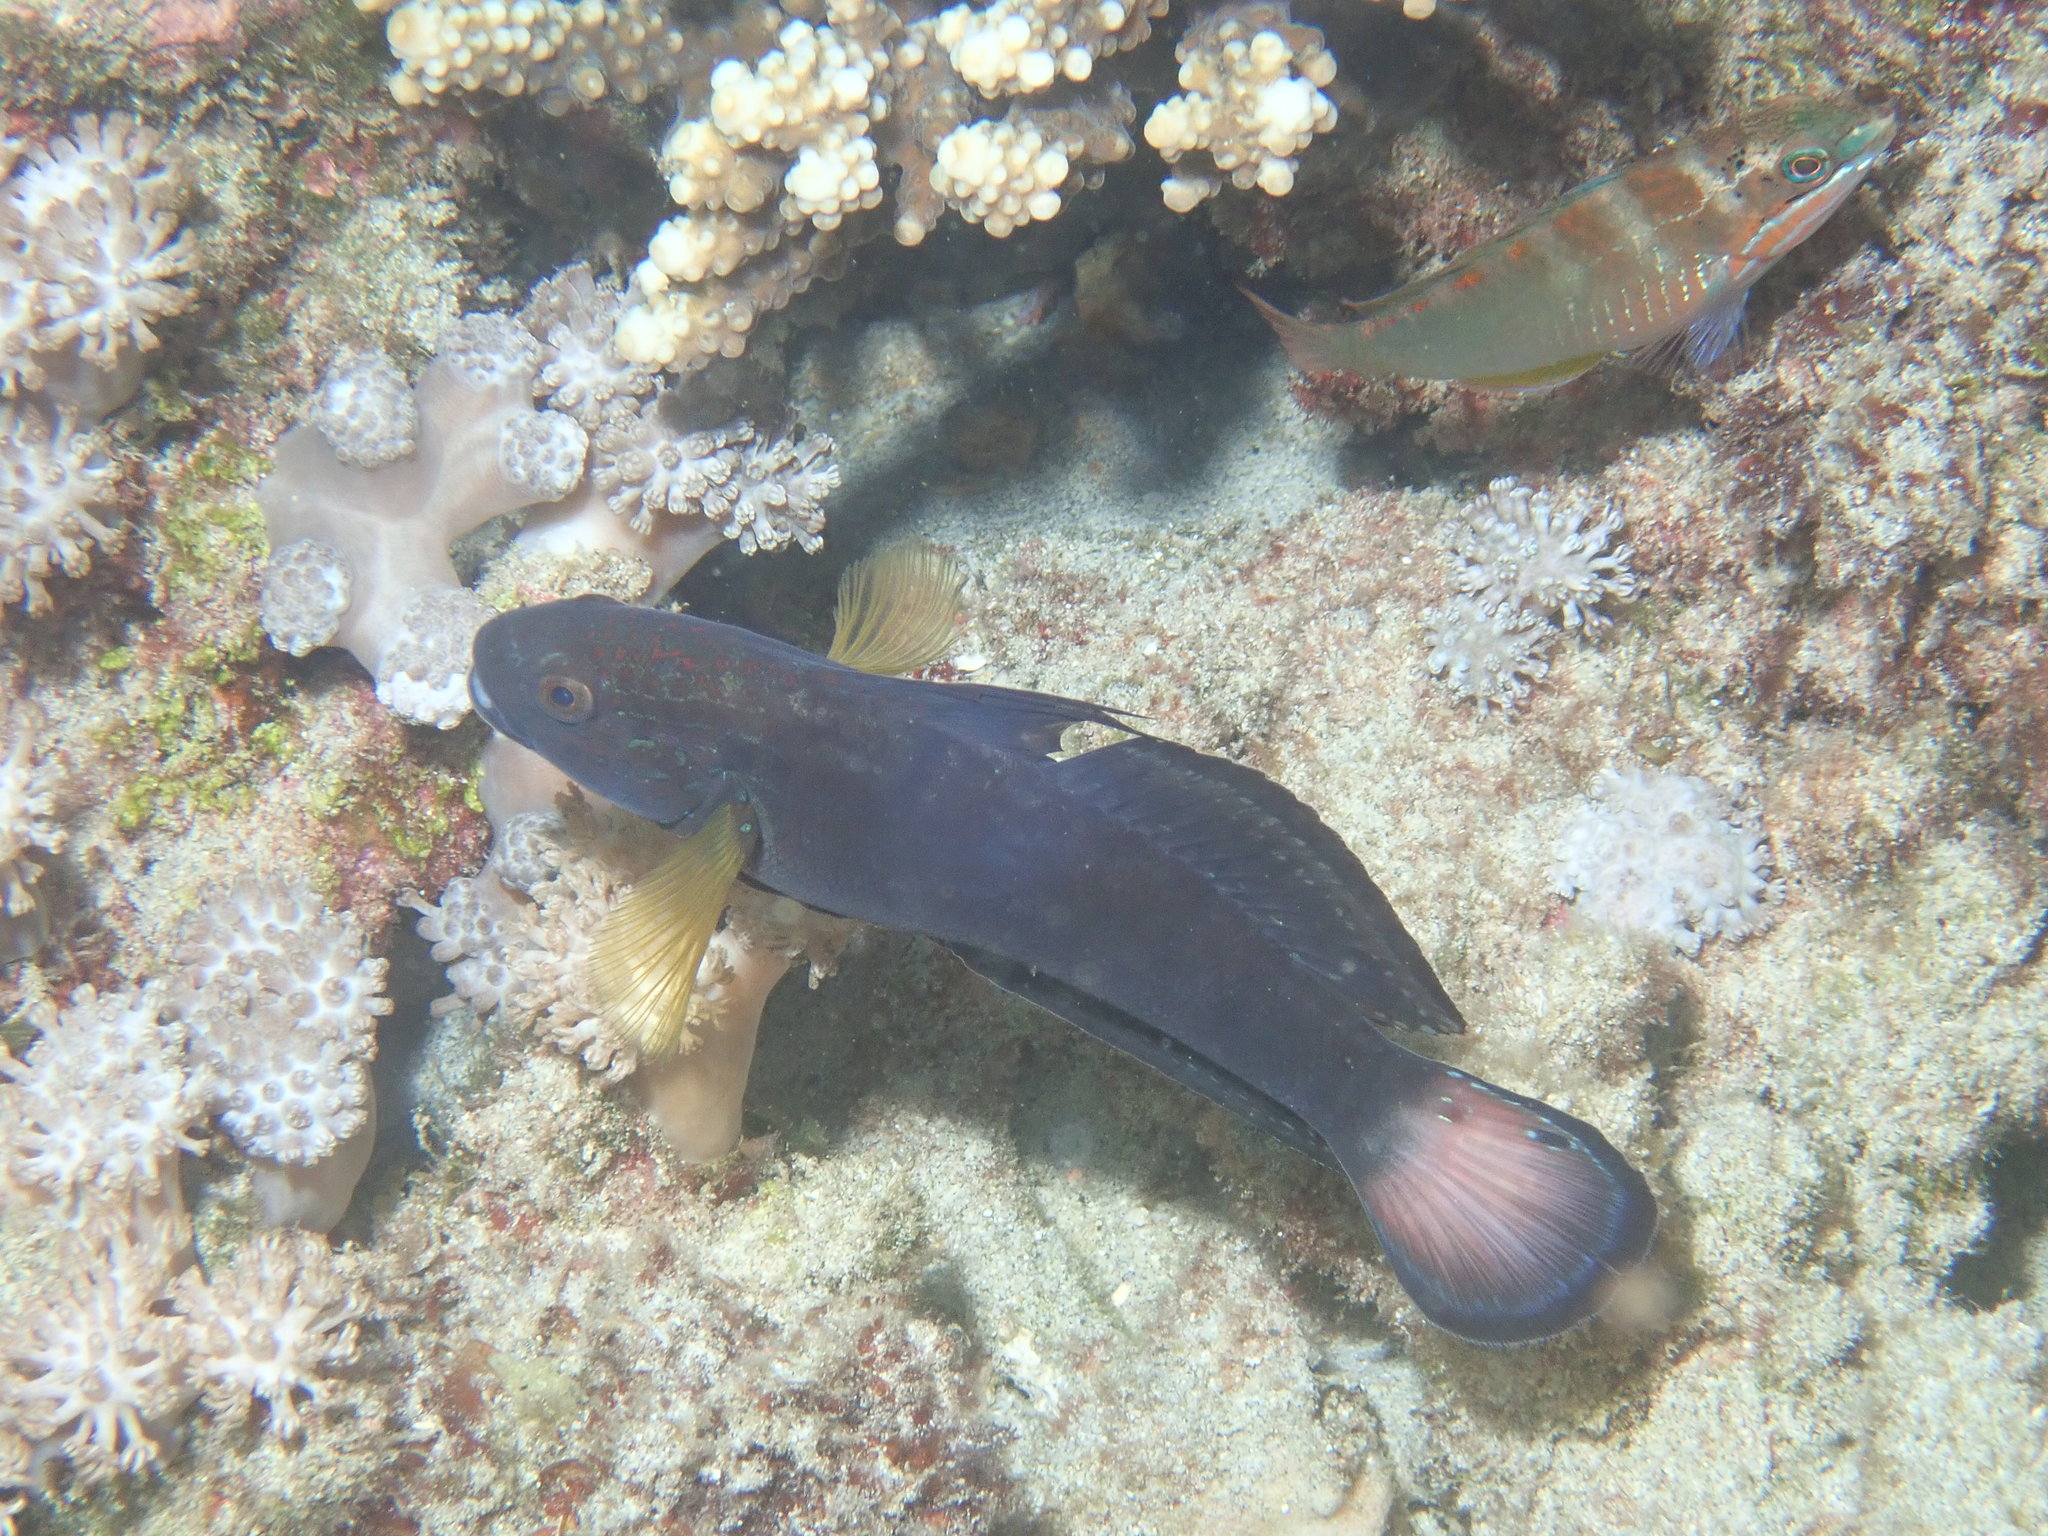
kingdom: Animalia
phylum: Chordata
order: Perciformes
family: Gobiidae
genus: Amblygobius
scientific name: Amblygobius phalaena
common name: Banded goby
